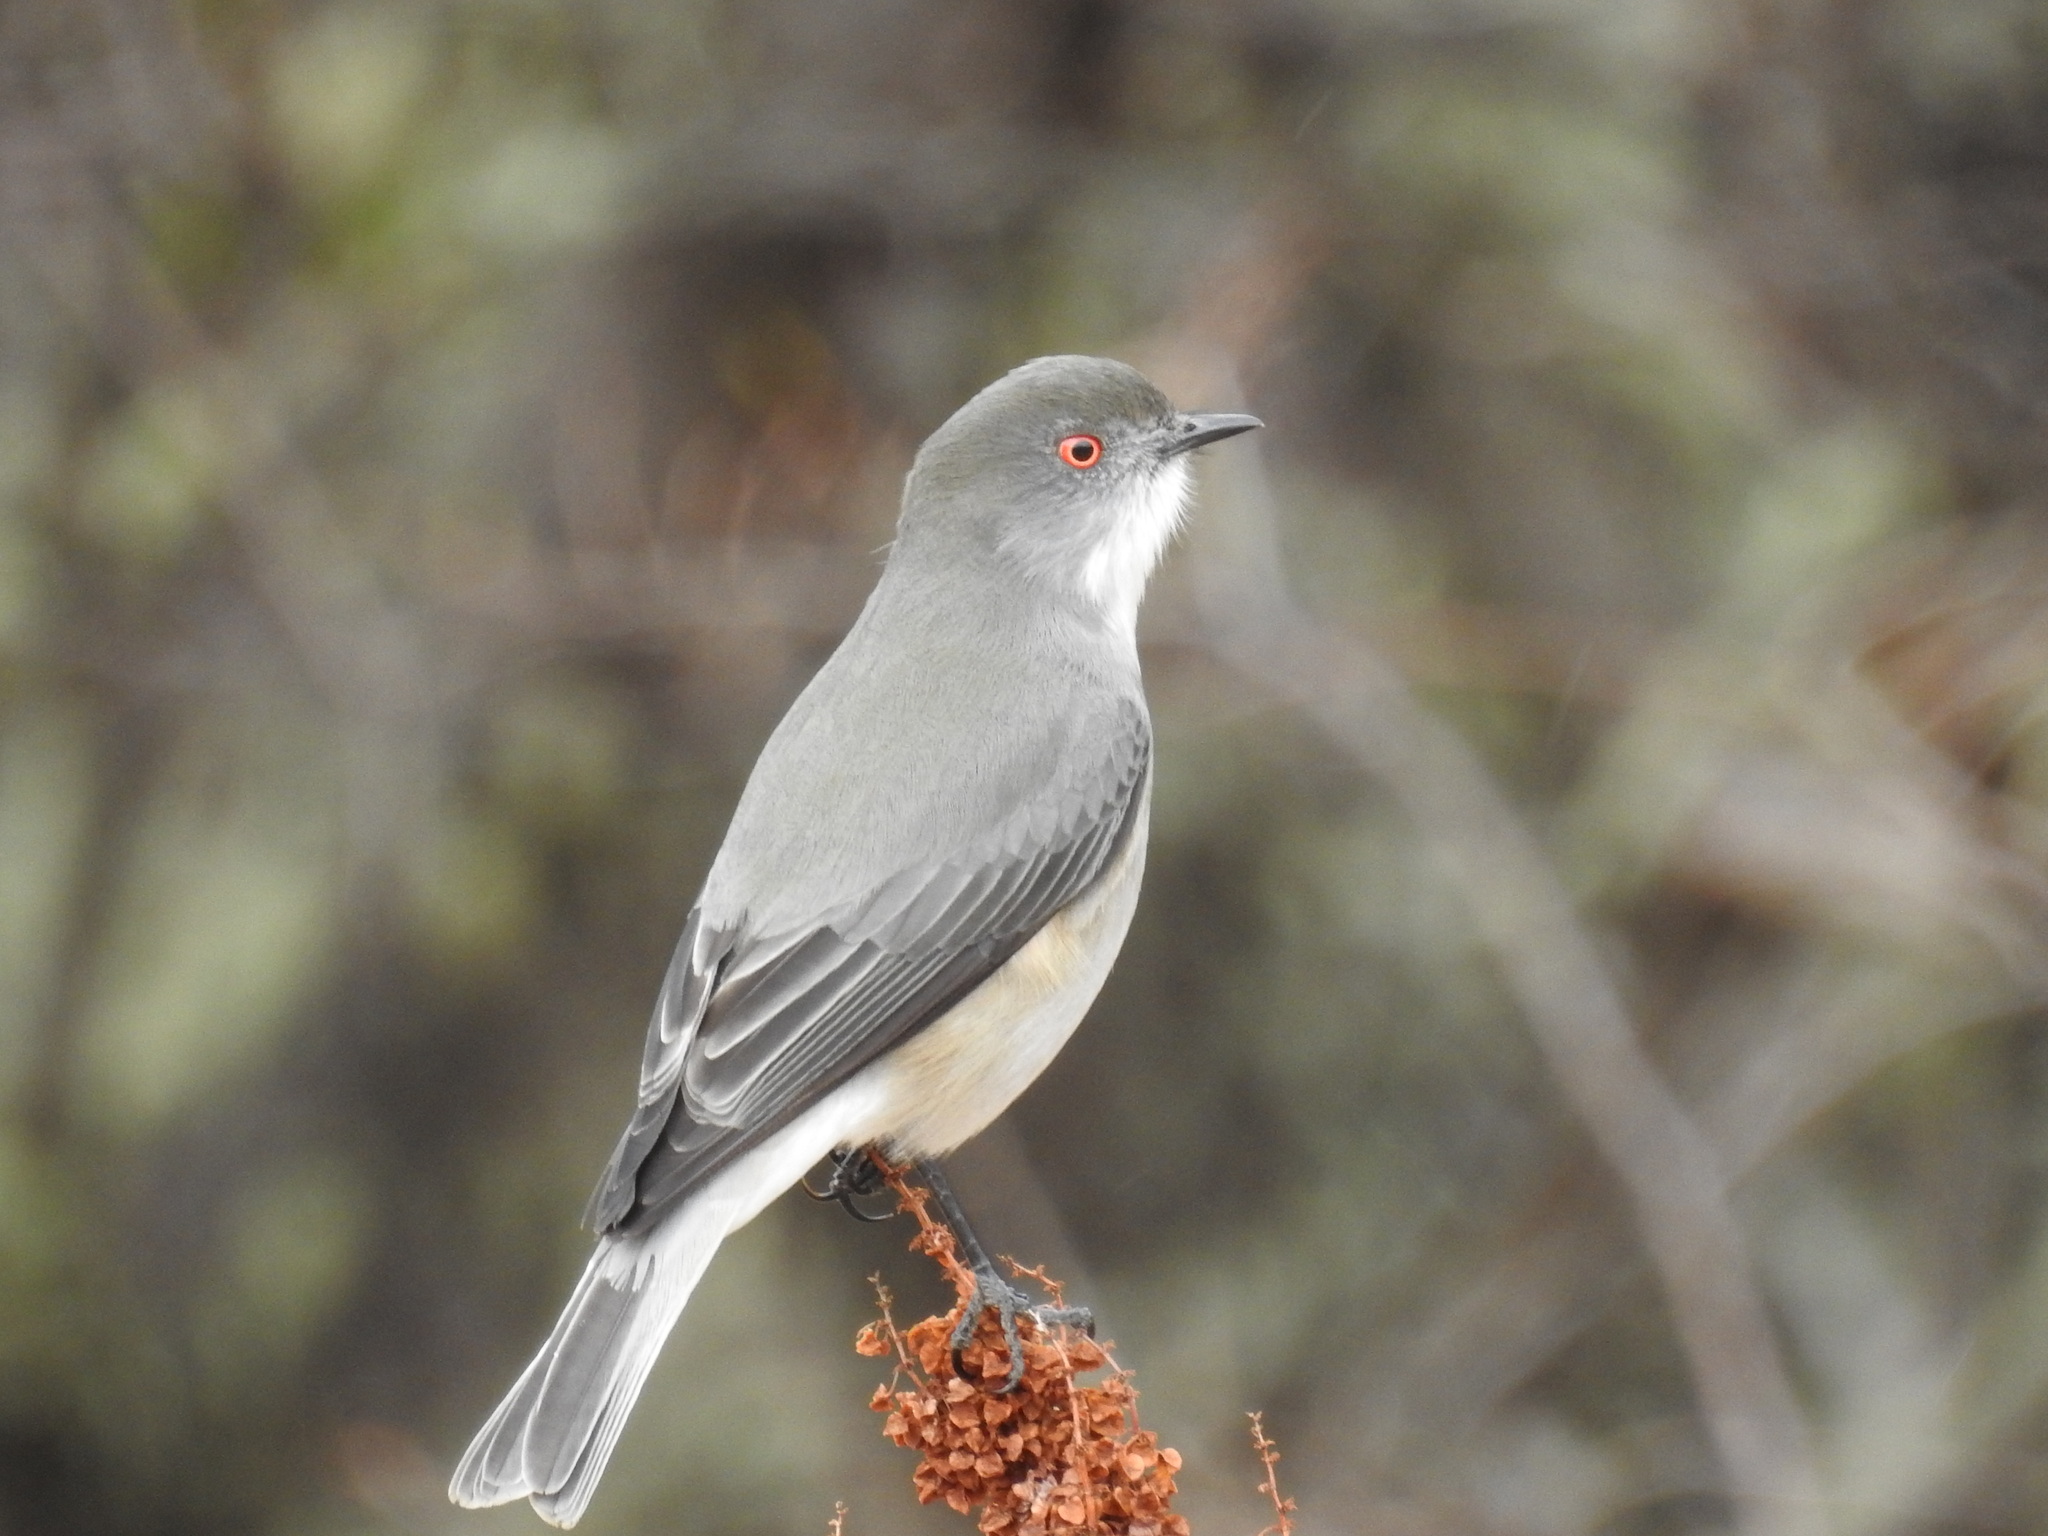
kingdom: Animalia
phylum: Chordata
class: Aves
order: Passeriformes
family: Tyrannidae
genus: Xolmis
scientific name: Xolmis pyrope
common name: Fire-eyed diucon
